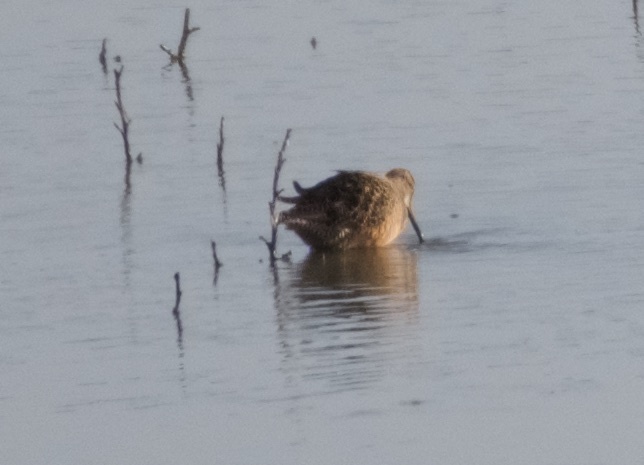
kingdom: Animalia
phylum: Chordata
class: Aves
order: Charadriiformes
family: Scolopacidae
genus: Limnodromus
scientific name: Limnodromus scolopaceus
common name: Long-billed dowitcher
